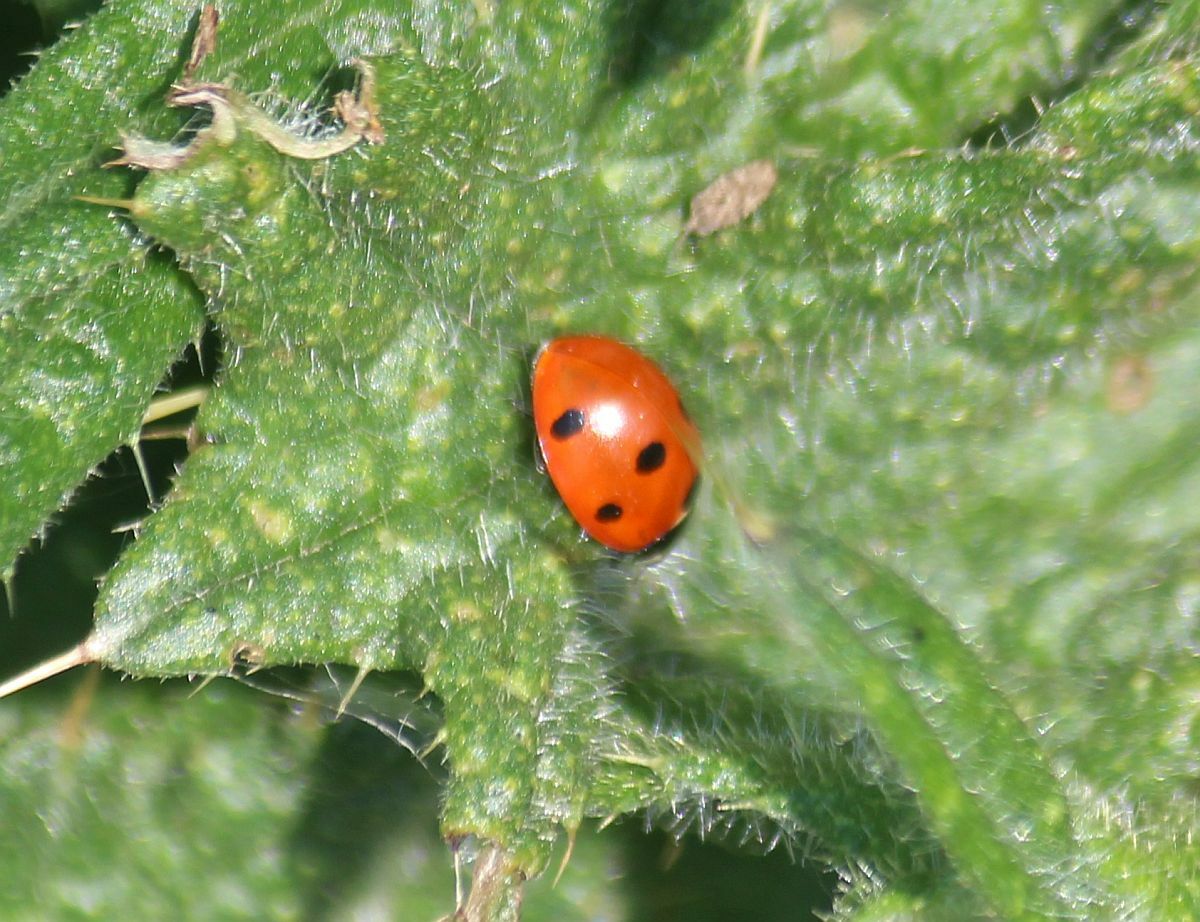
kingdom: Animalia
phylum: Arthropoda
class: Insecta
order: Coleoptera
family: Coccinellidae
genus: Coccinella
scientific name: Coccinella septempunctata
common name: Sevenspotted lady beetle
